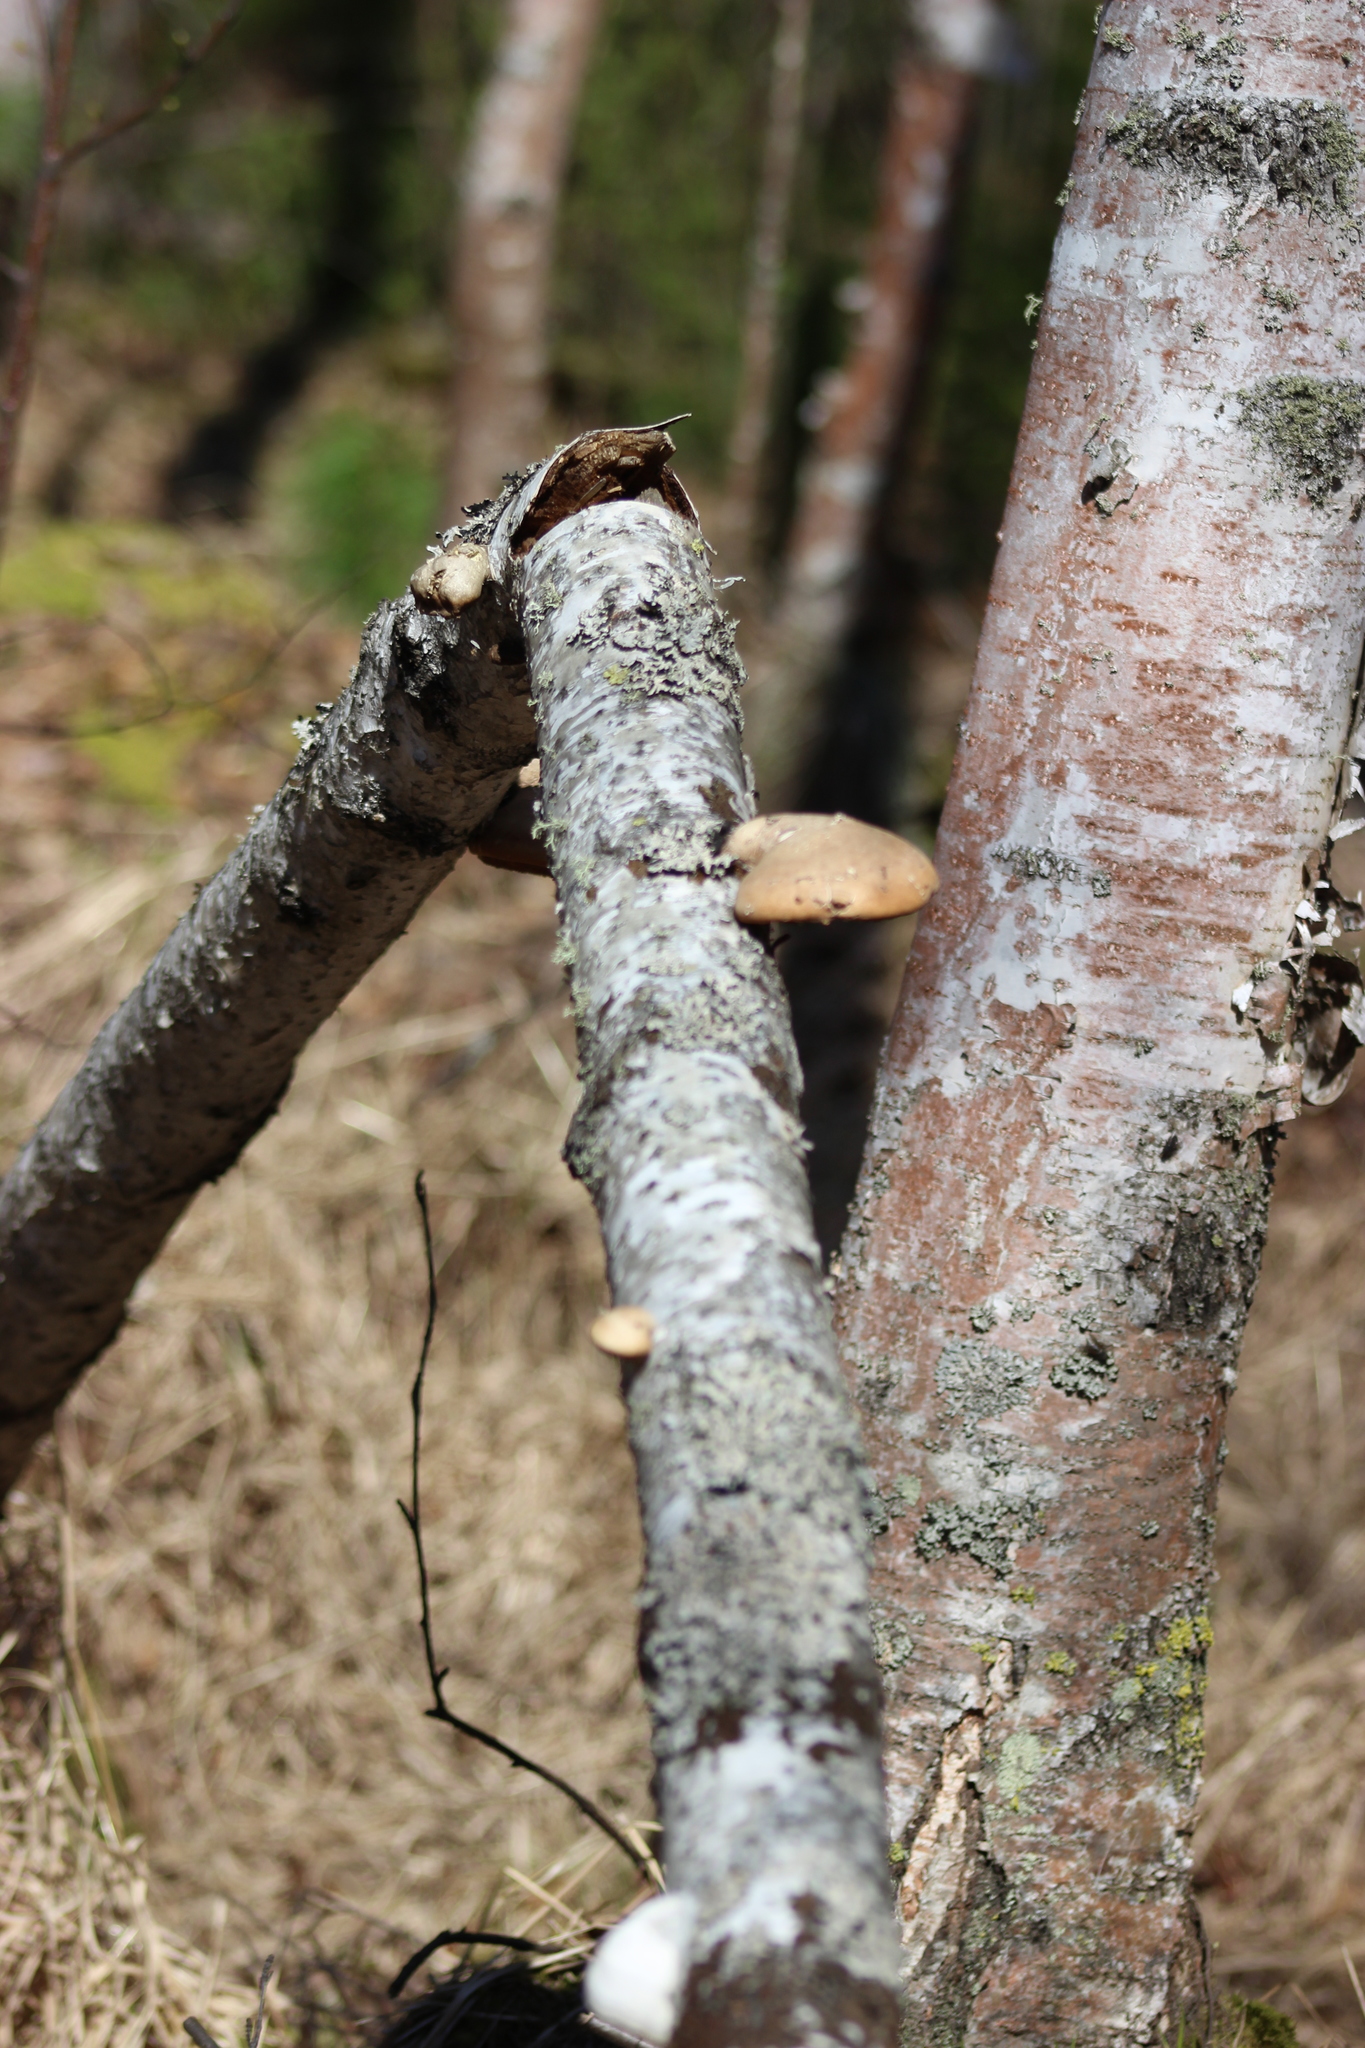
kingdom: Fungi
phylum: Basidiomycota
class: Agaricomycetes
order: Polyporales
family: Fomitopsidaceae
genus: Fomitopsis
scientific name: Fomitopsis betulina
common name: Birch polypore
